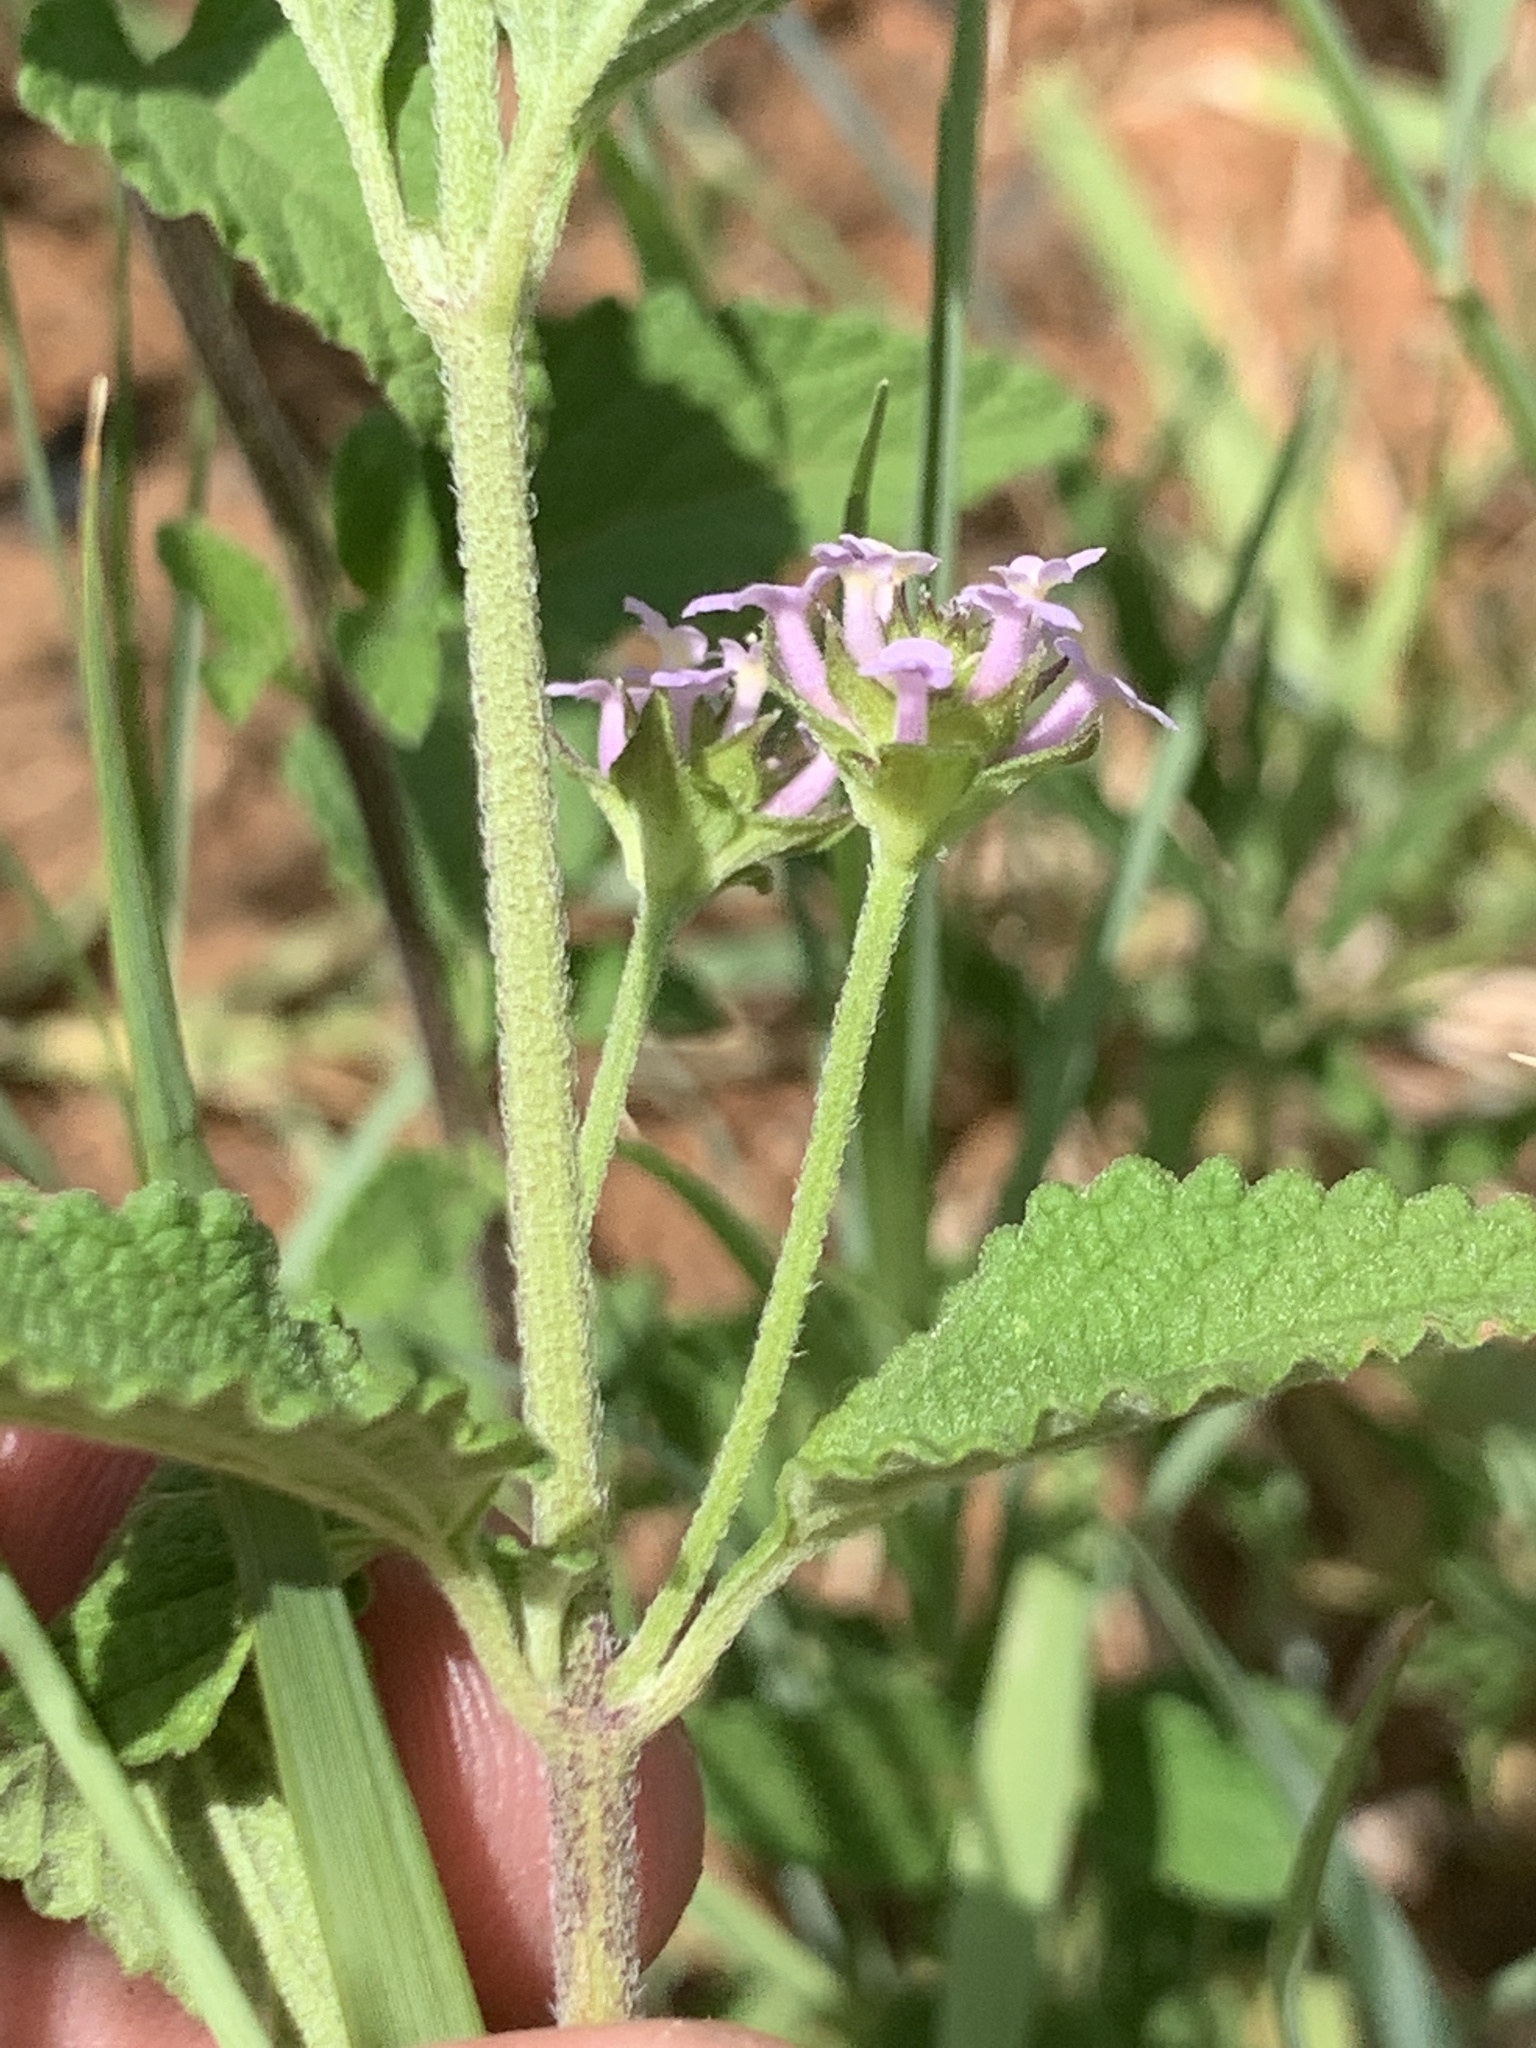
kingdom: Plantae
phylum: Tracheophyta
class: Magnoliopsida
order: Lamiales
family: Verbenaceae
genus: Lantana
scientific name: Lantana rugosa
